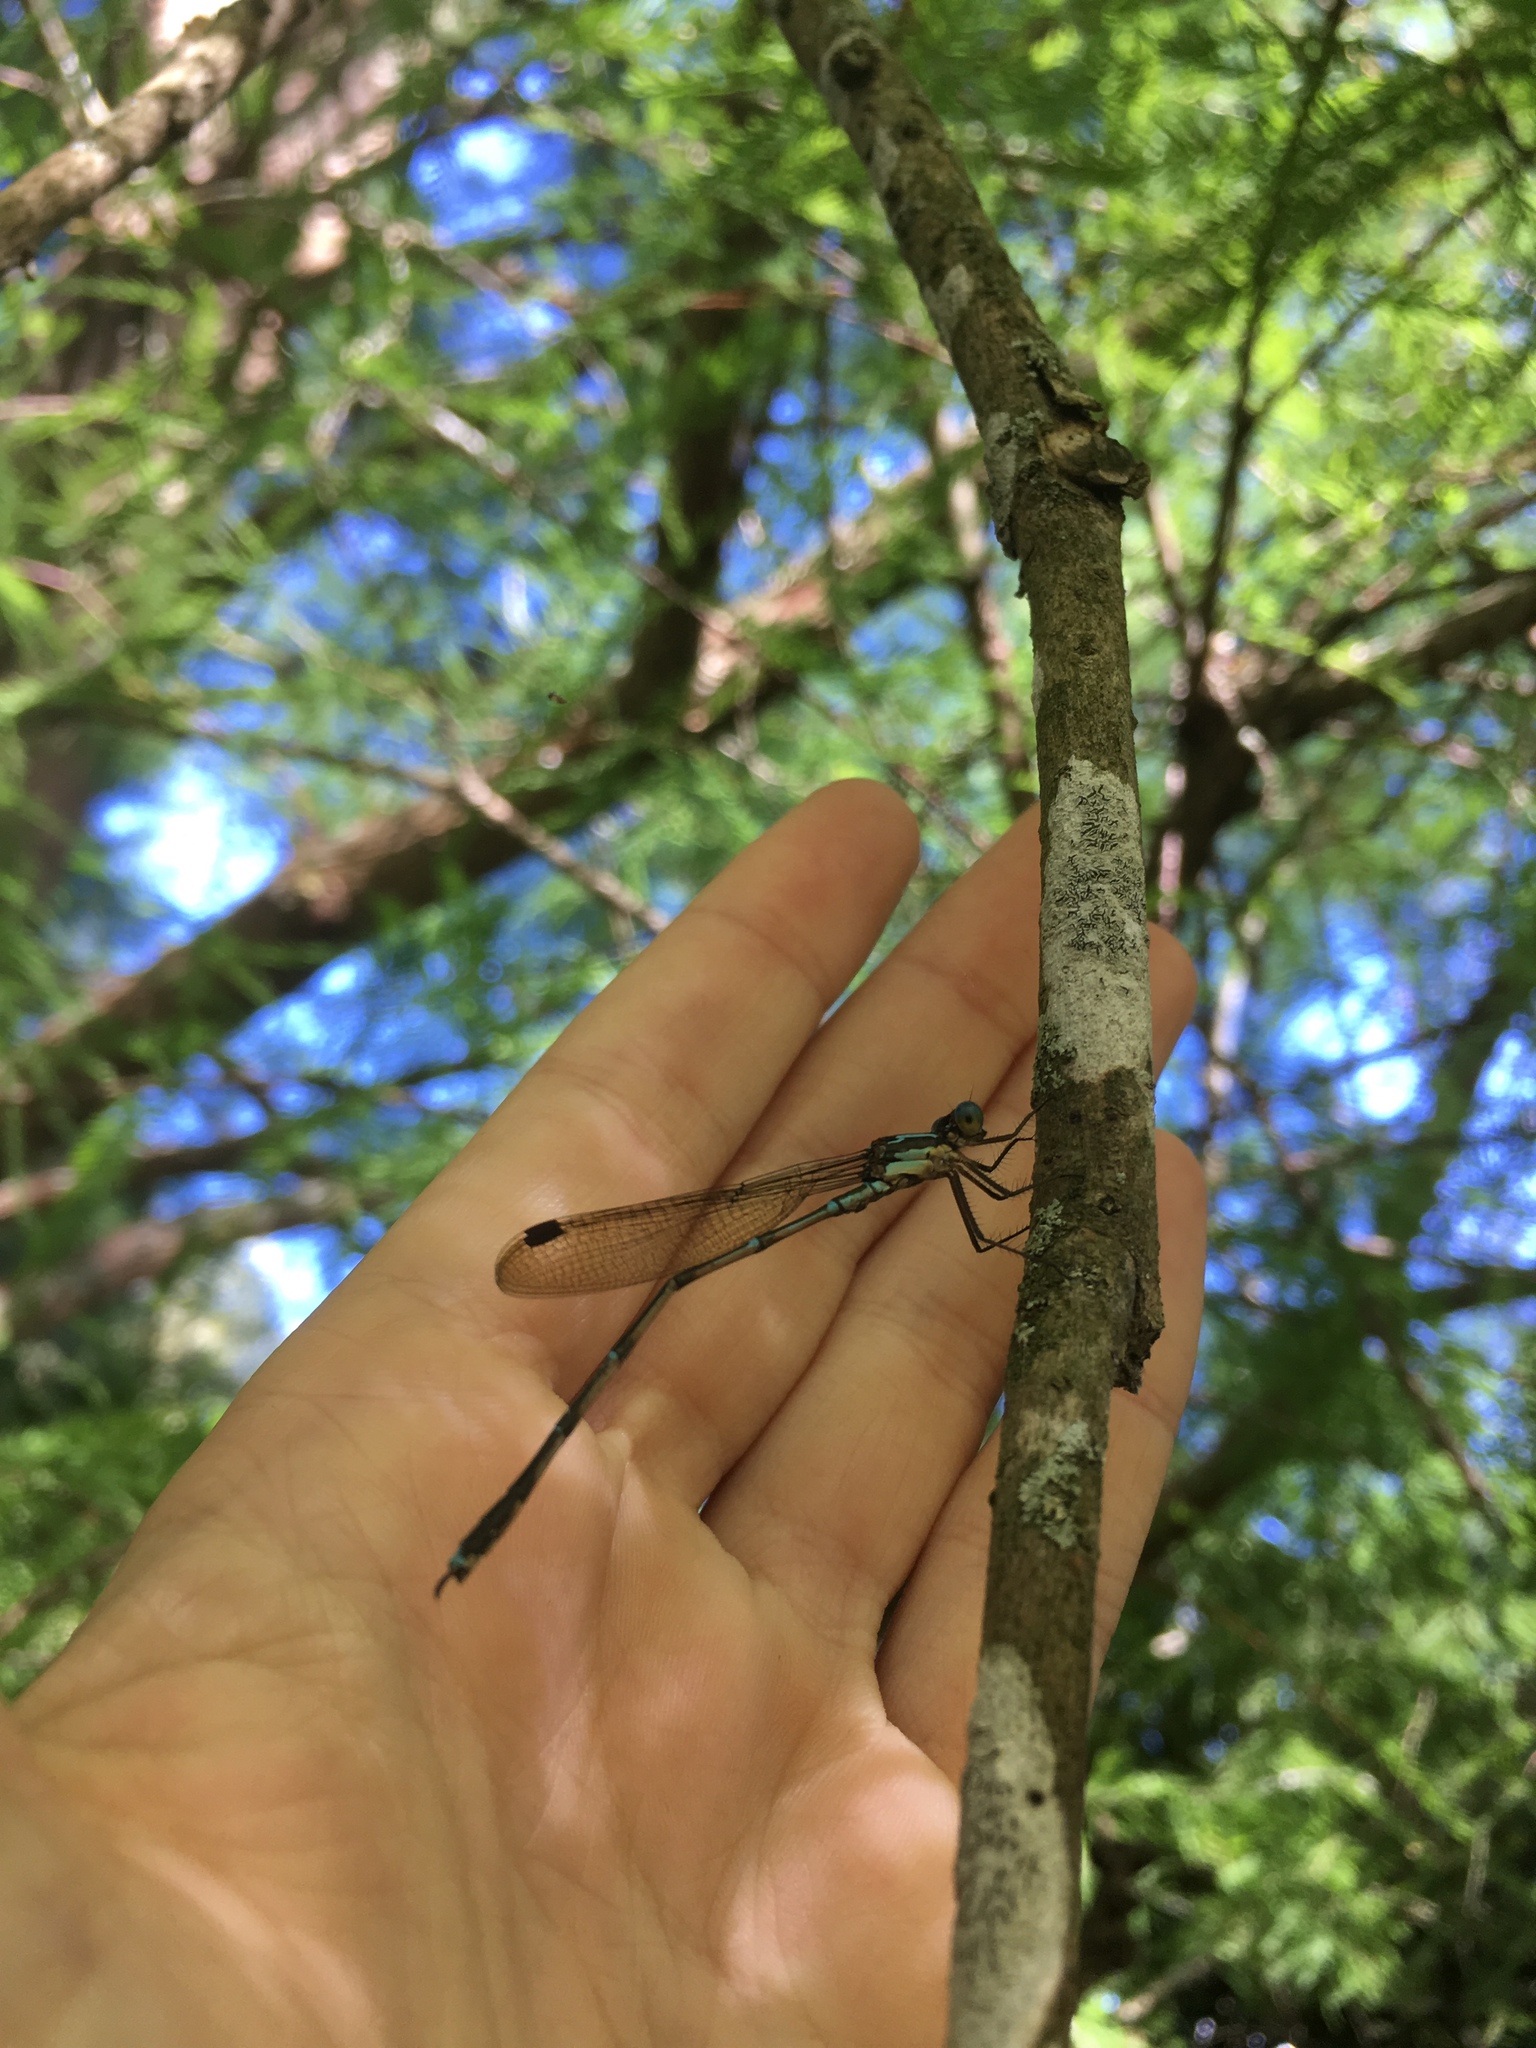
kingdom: Animalia
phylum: Arthropoda
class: Insecta
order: Odonata
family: Lestidae
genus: Austrolestes
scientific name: Austrolestes colensonis
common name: Blue damselfly
